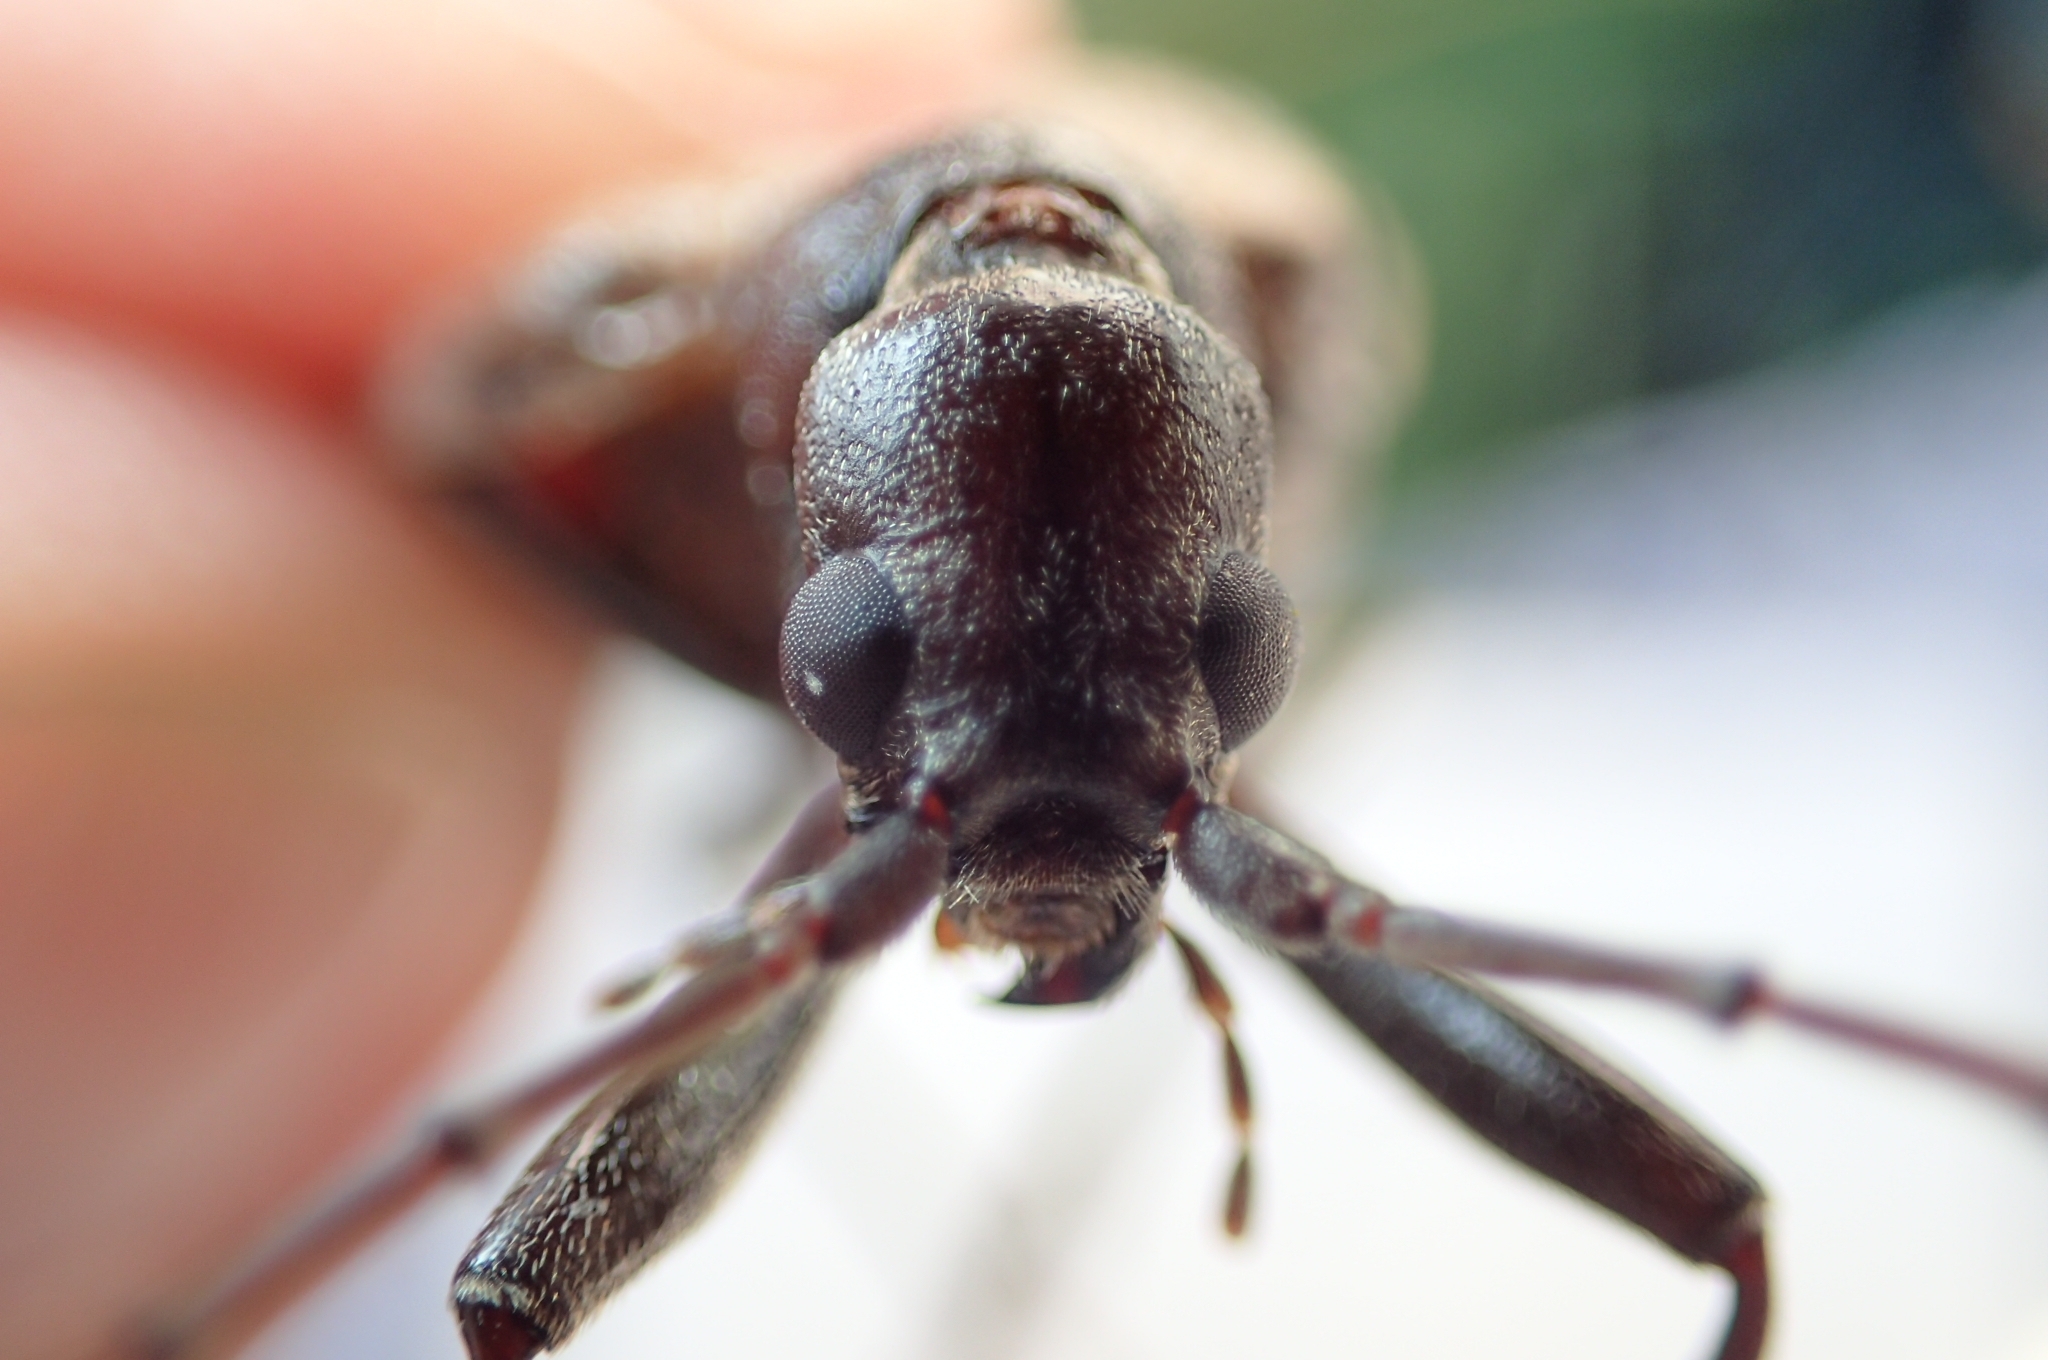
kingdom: Animalia
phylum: Arthropoda
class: Insecta
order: Coleoptera
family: Cerambycidae
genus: Vesperus
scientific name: Vesperus xatarti
